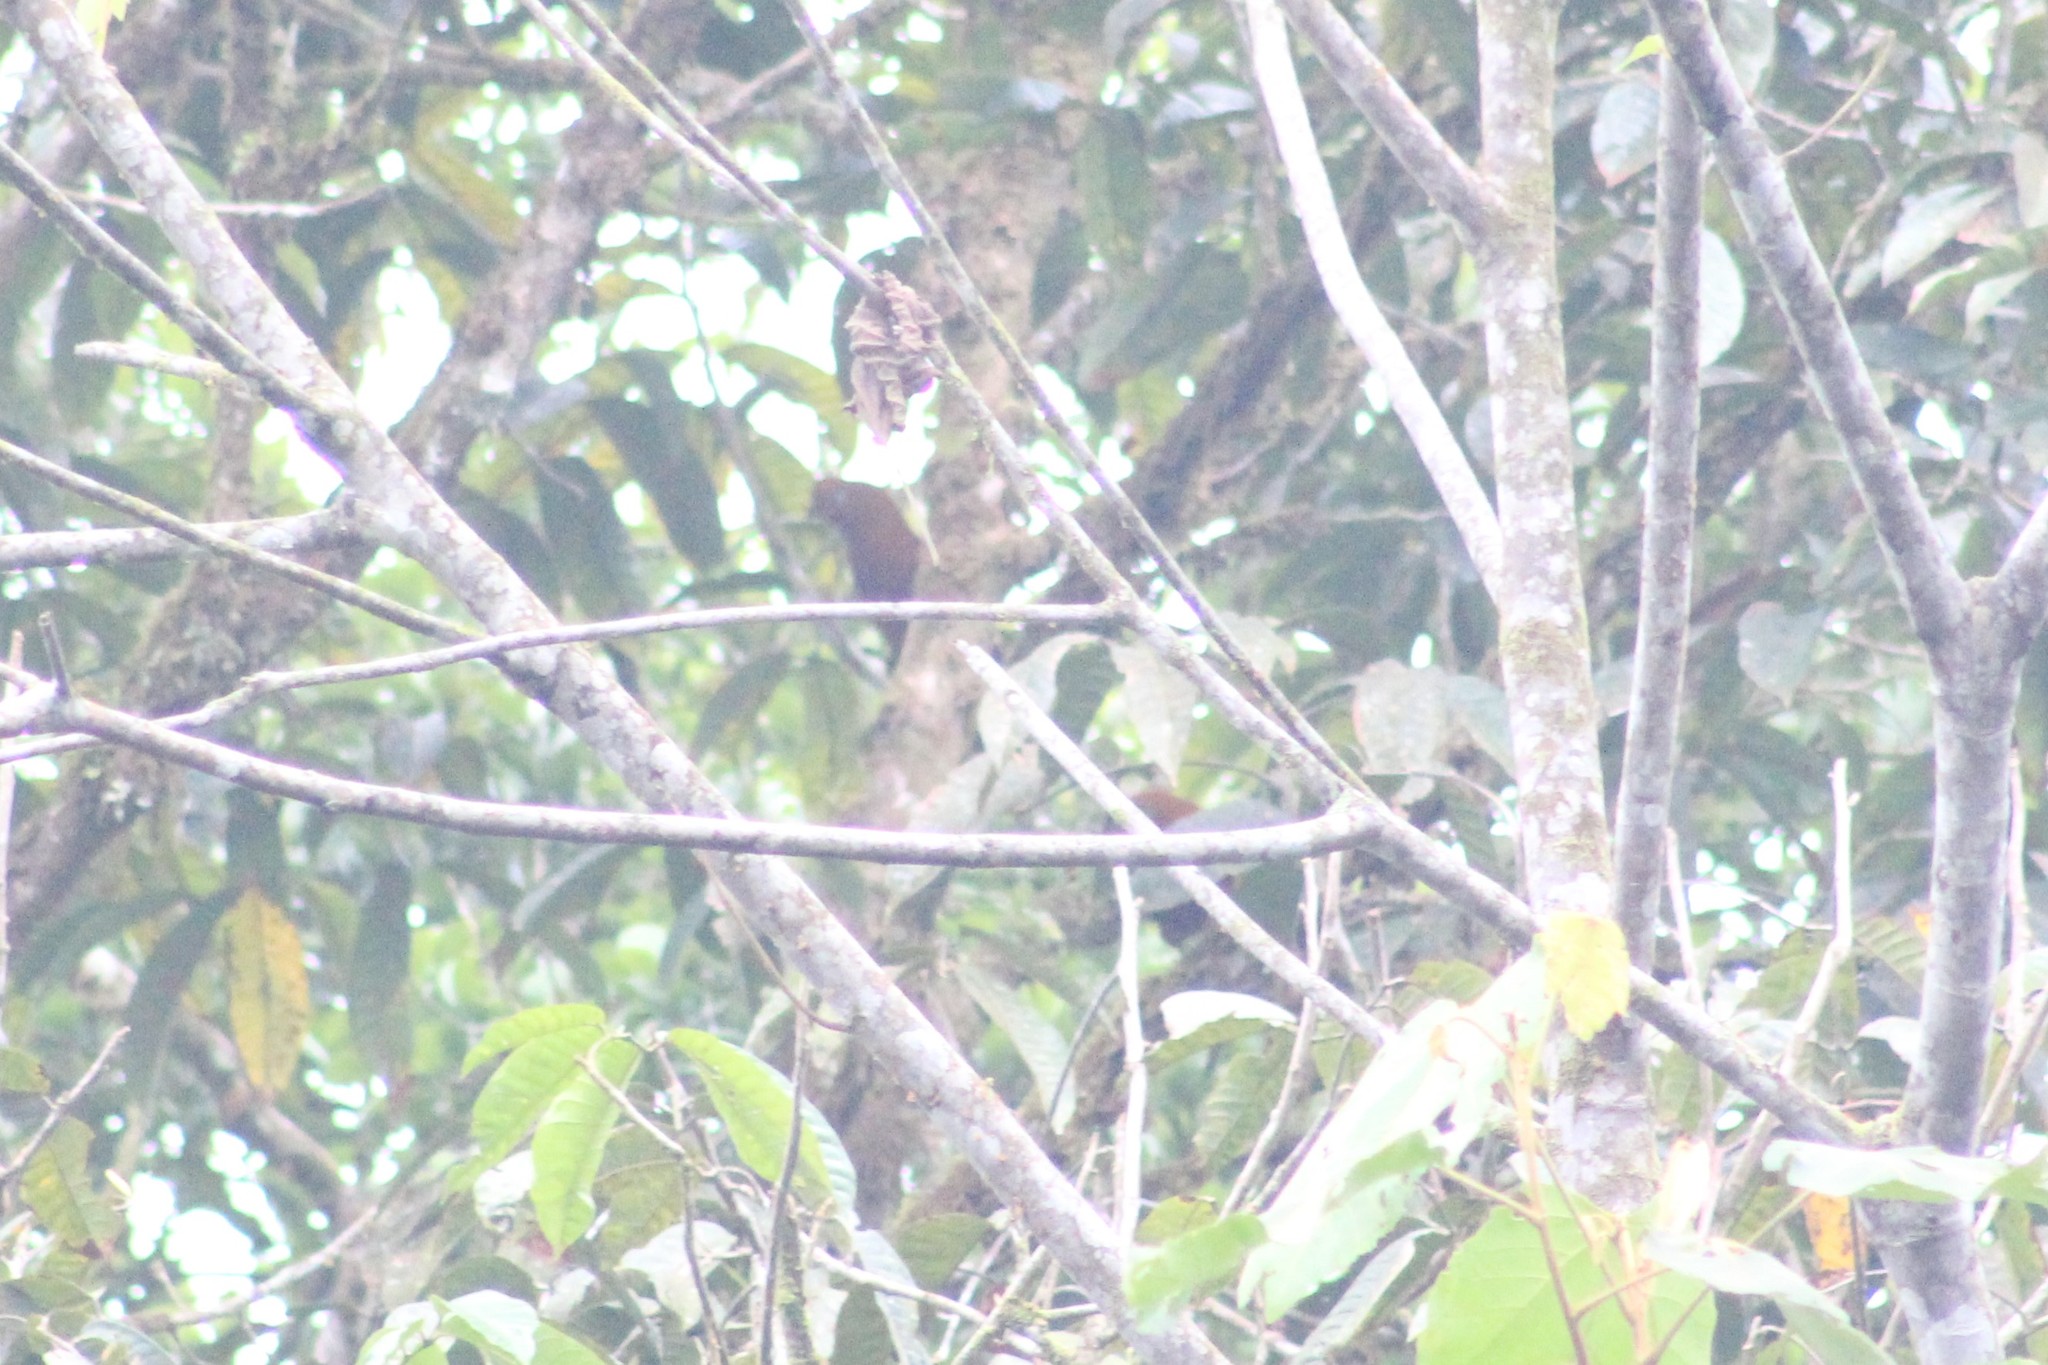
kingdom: Animalia
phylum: Chordata
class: Aves
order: Passeriformes
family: Cotingidae
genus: Rupicola
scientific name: Rupicola peruvianus
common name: Andean cock-of-the-rock
